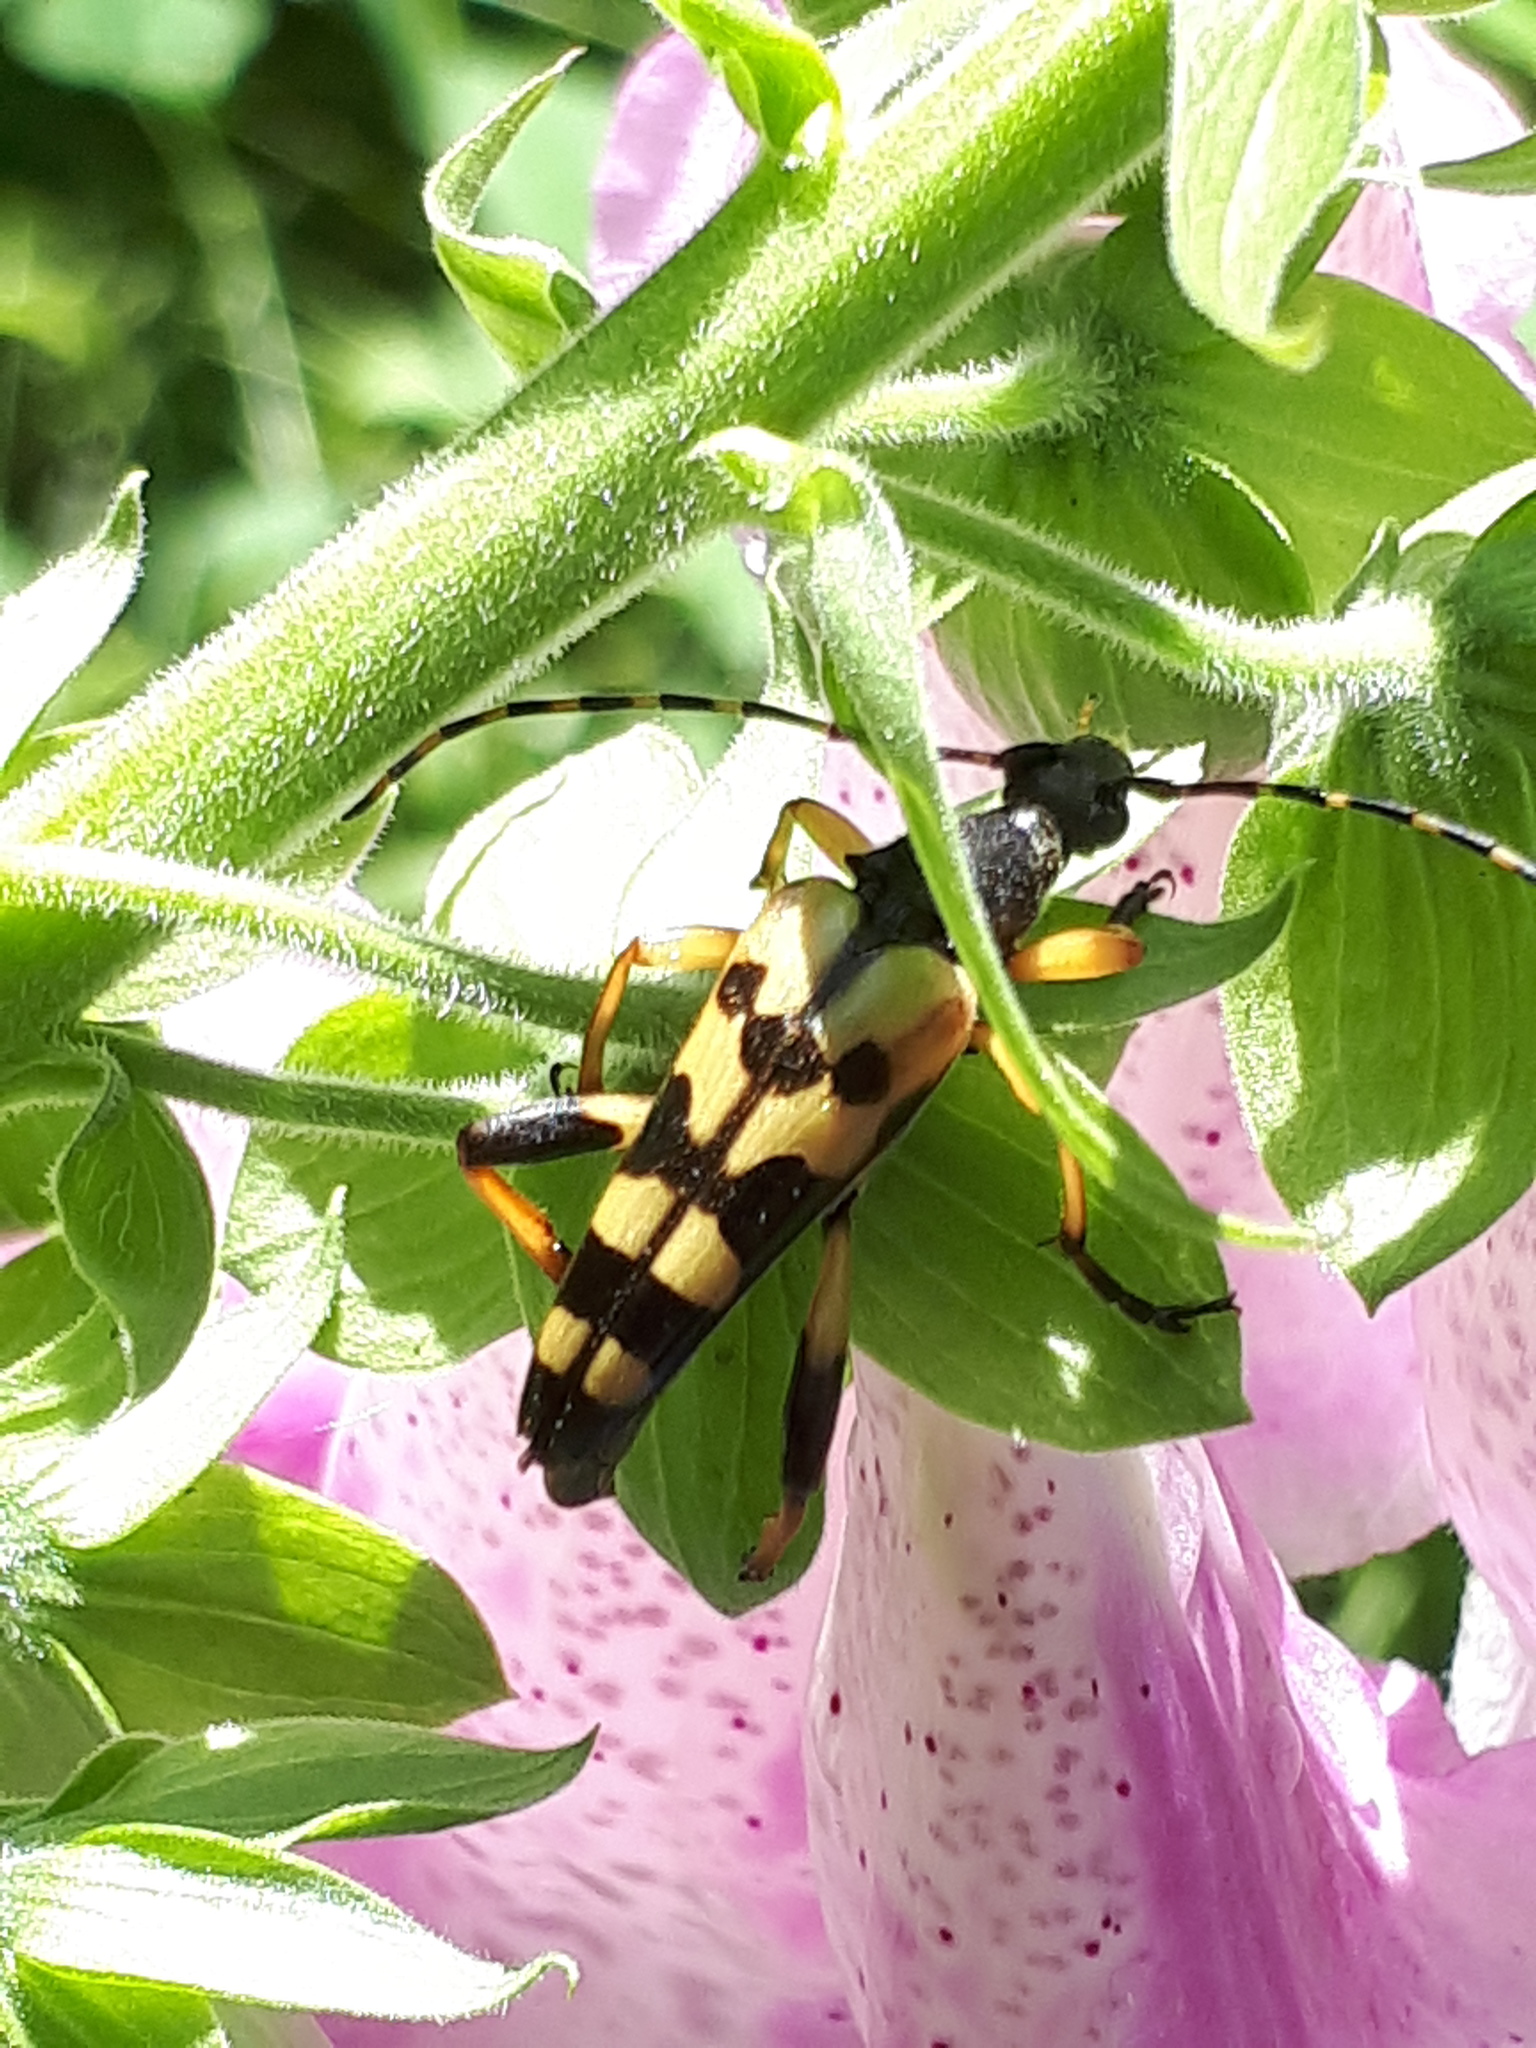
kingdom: Animalia
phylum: Arthropoda
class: Insecta
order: Coleoptera
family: Cerambycidae
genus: Rutpela
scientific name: Rutpela maculata
